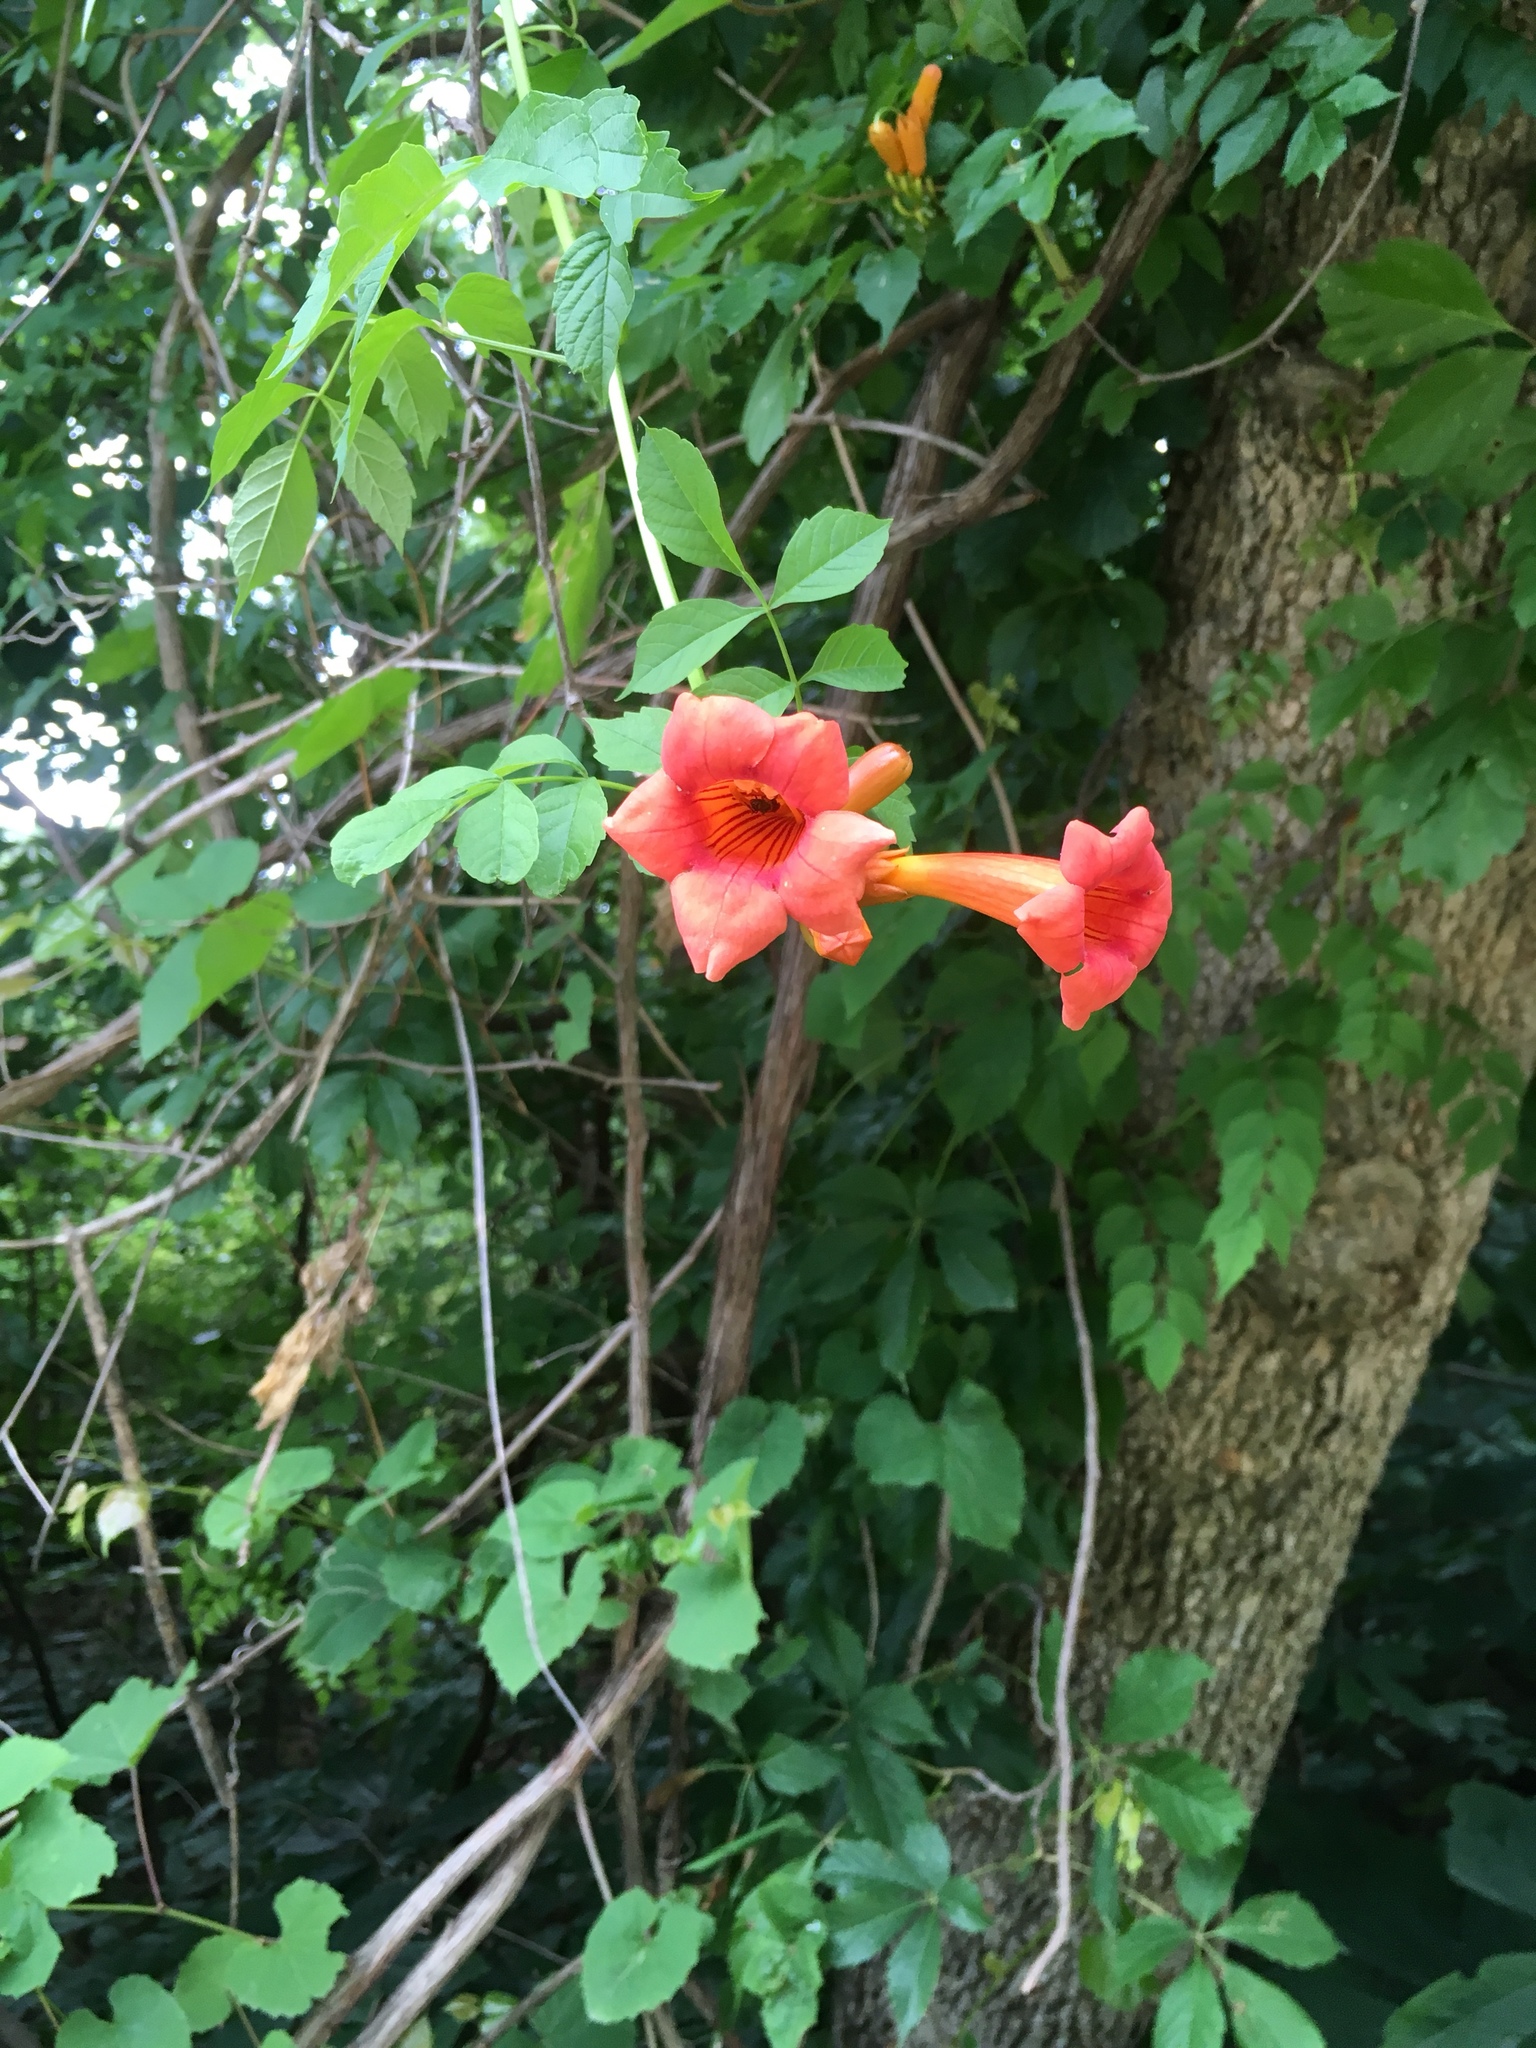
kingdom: Plantae
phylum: Tracheophyta
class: Magnoliopsida
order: Lamiales
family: Bignoniaceae
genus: Campsis
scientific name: Campsis radicans
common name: Trumpet-creeper
